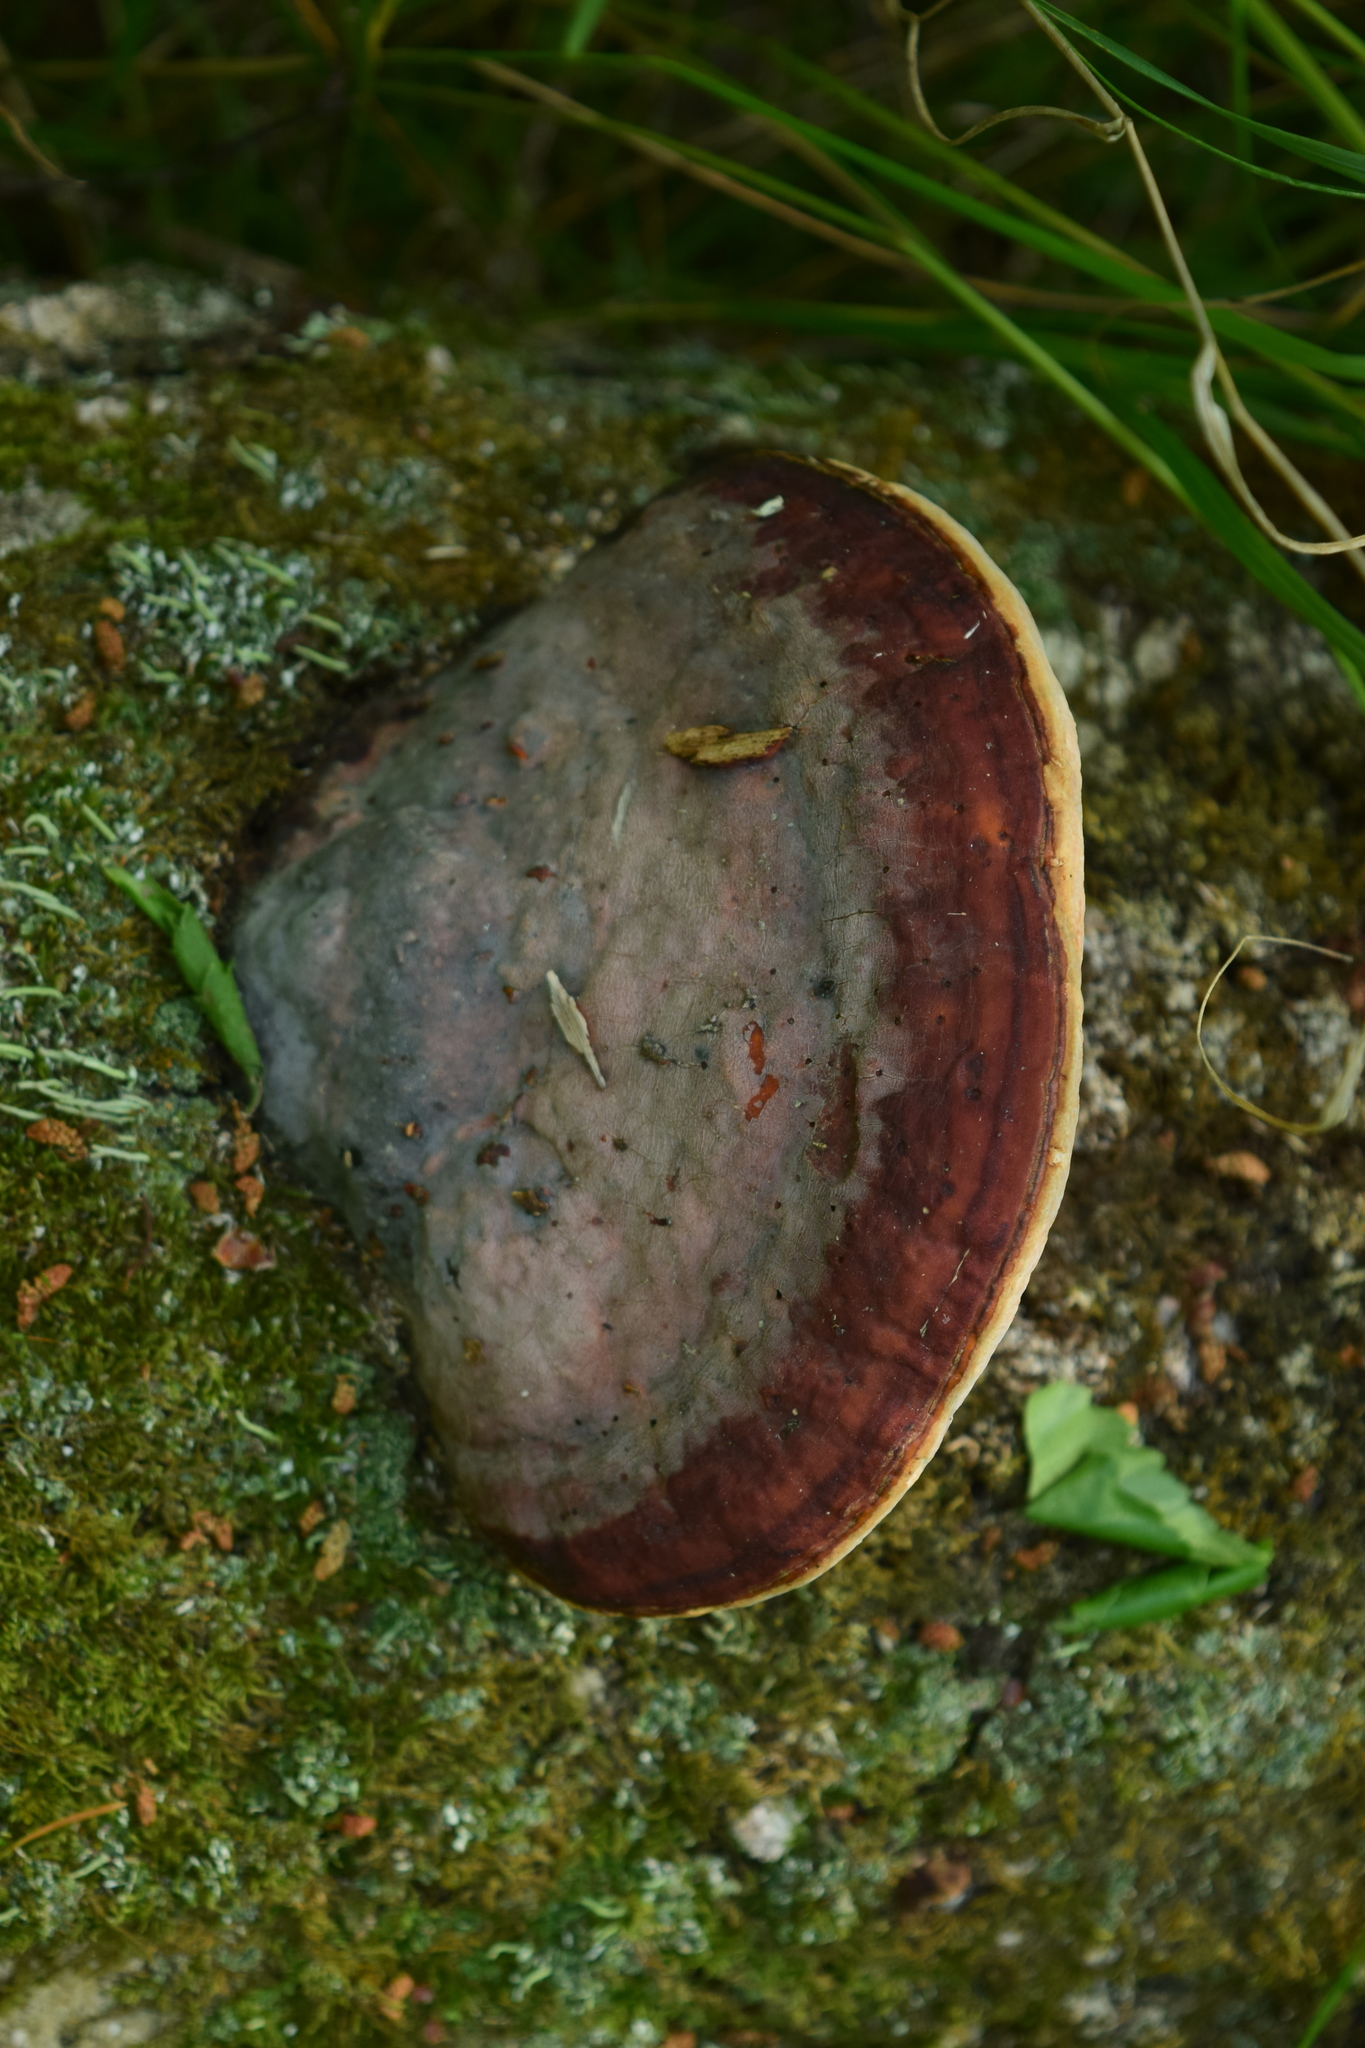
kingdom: Fungi
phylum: Basidiomycota
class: Agaricomycetes
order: Polyporales
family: Fomitopsidaceae
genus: Fomitopsis
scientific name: Fomitopsis pinicola
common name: Red-belted bracket
